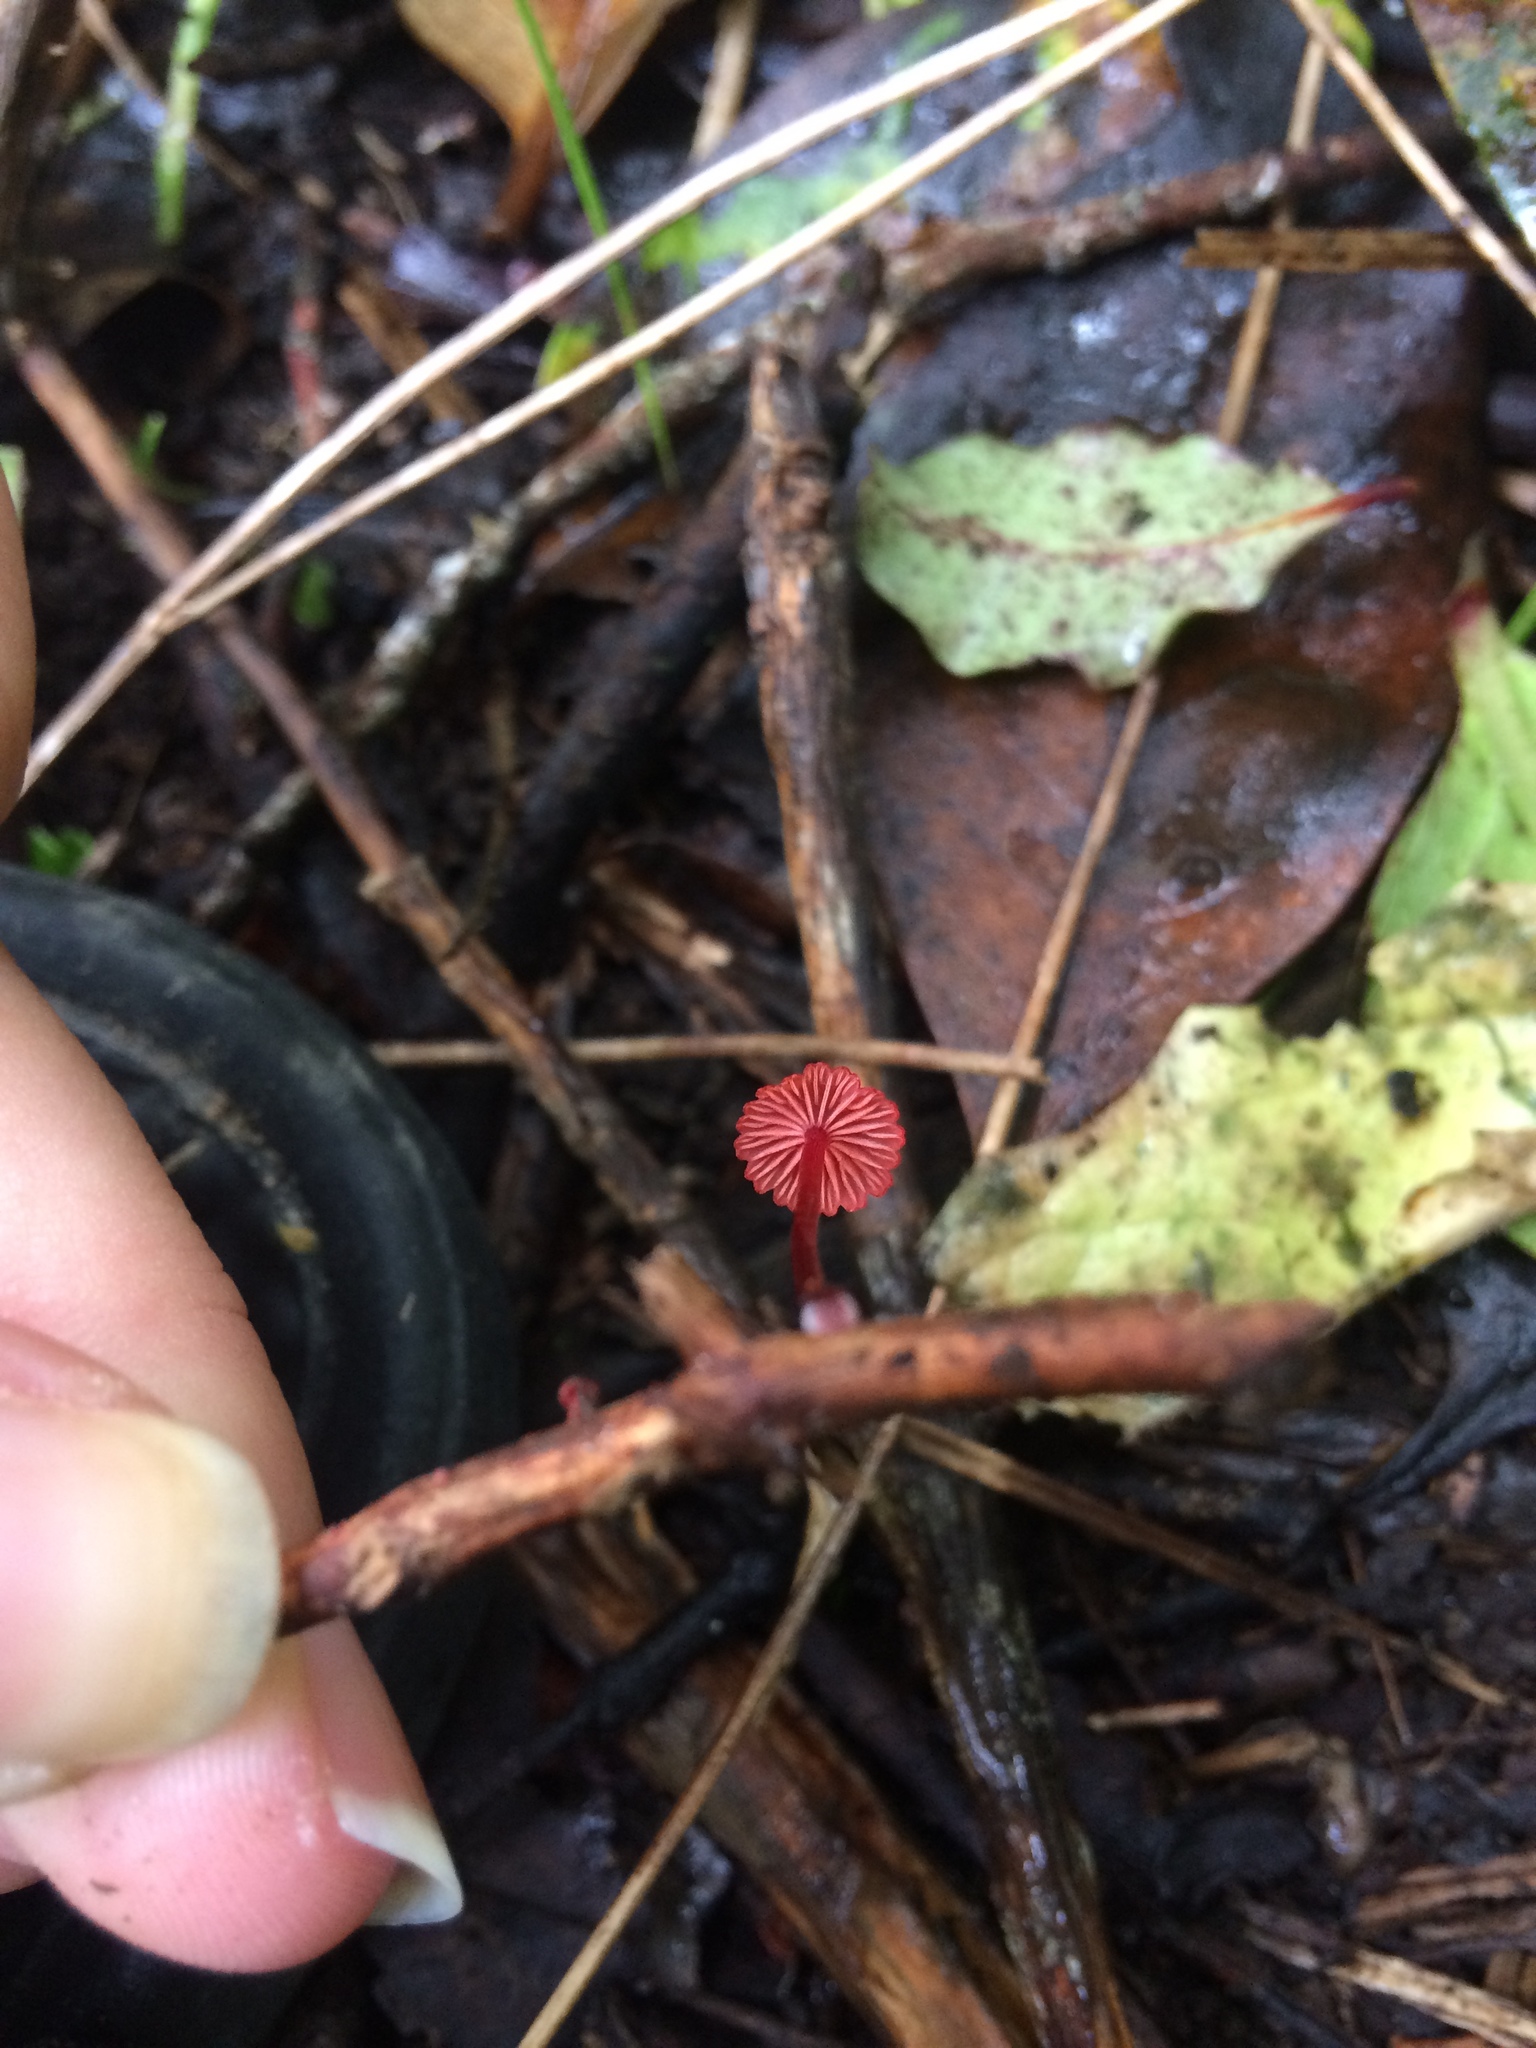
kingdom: Fungi
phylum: Basidiomycota
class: Agaricomycetes
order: Agaricales
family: Mycenaceae
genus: Cruentomycena
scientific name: Cruentomycena viscidocruenta
